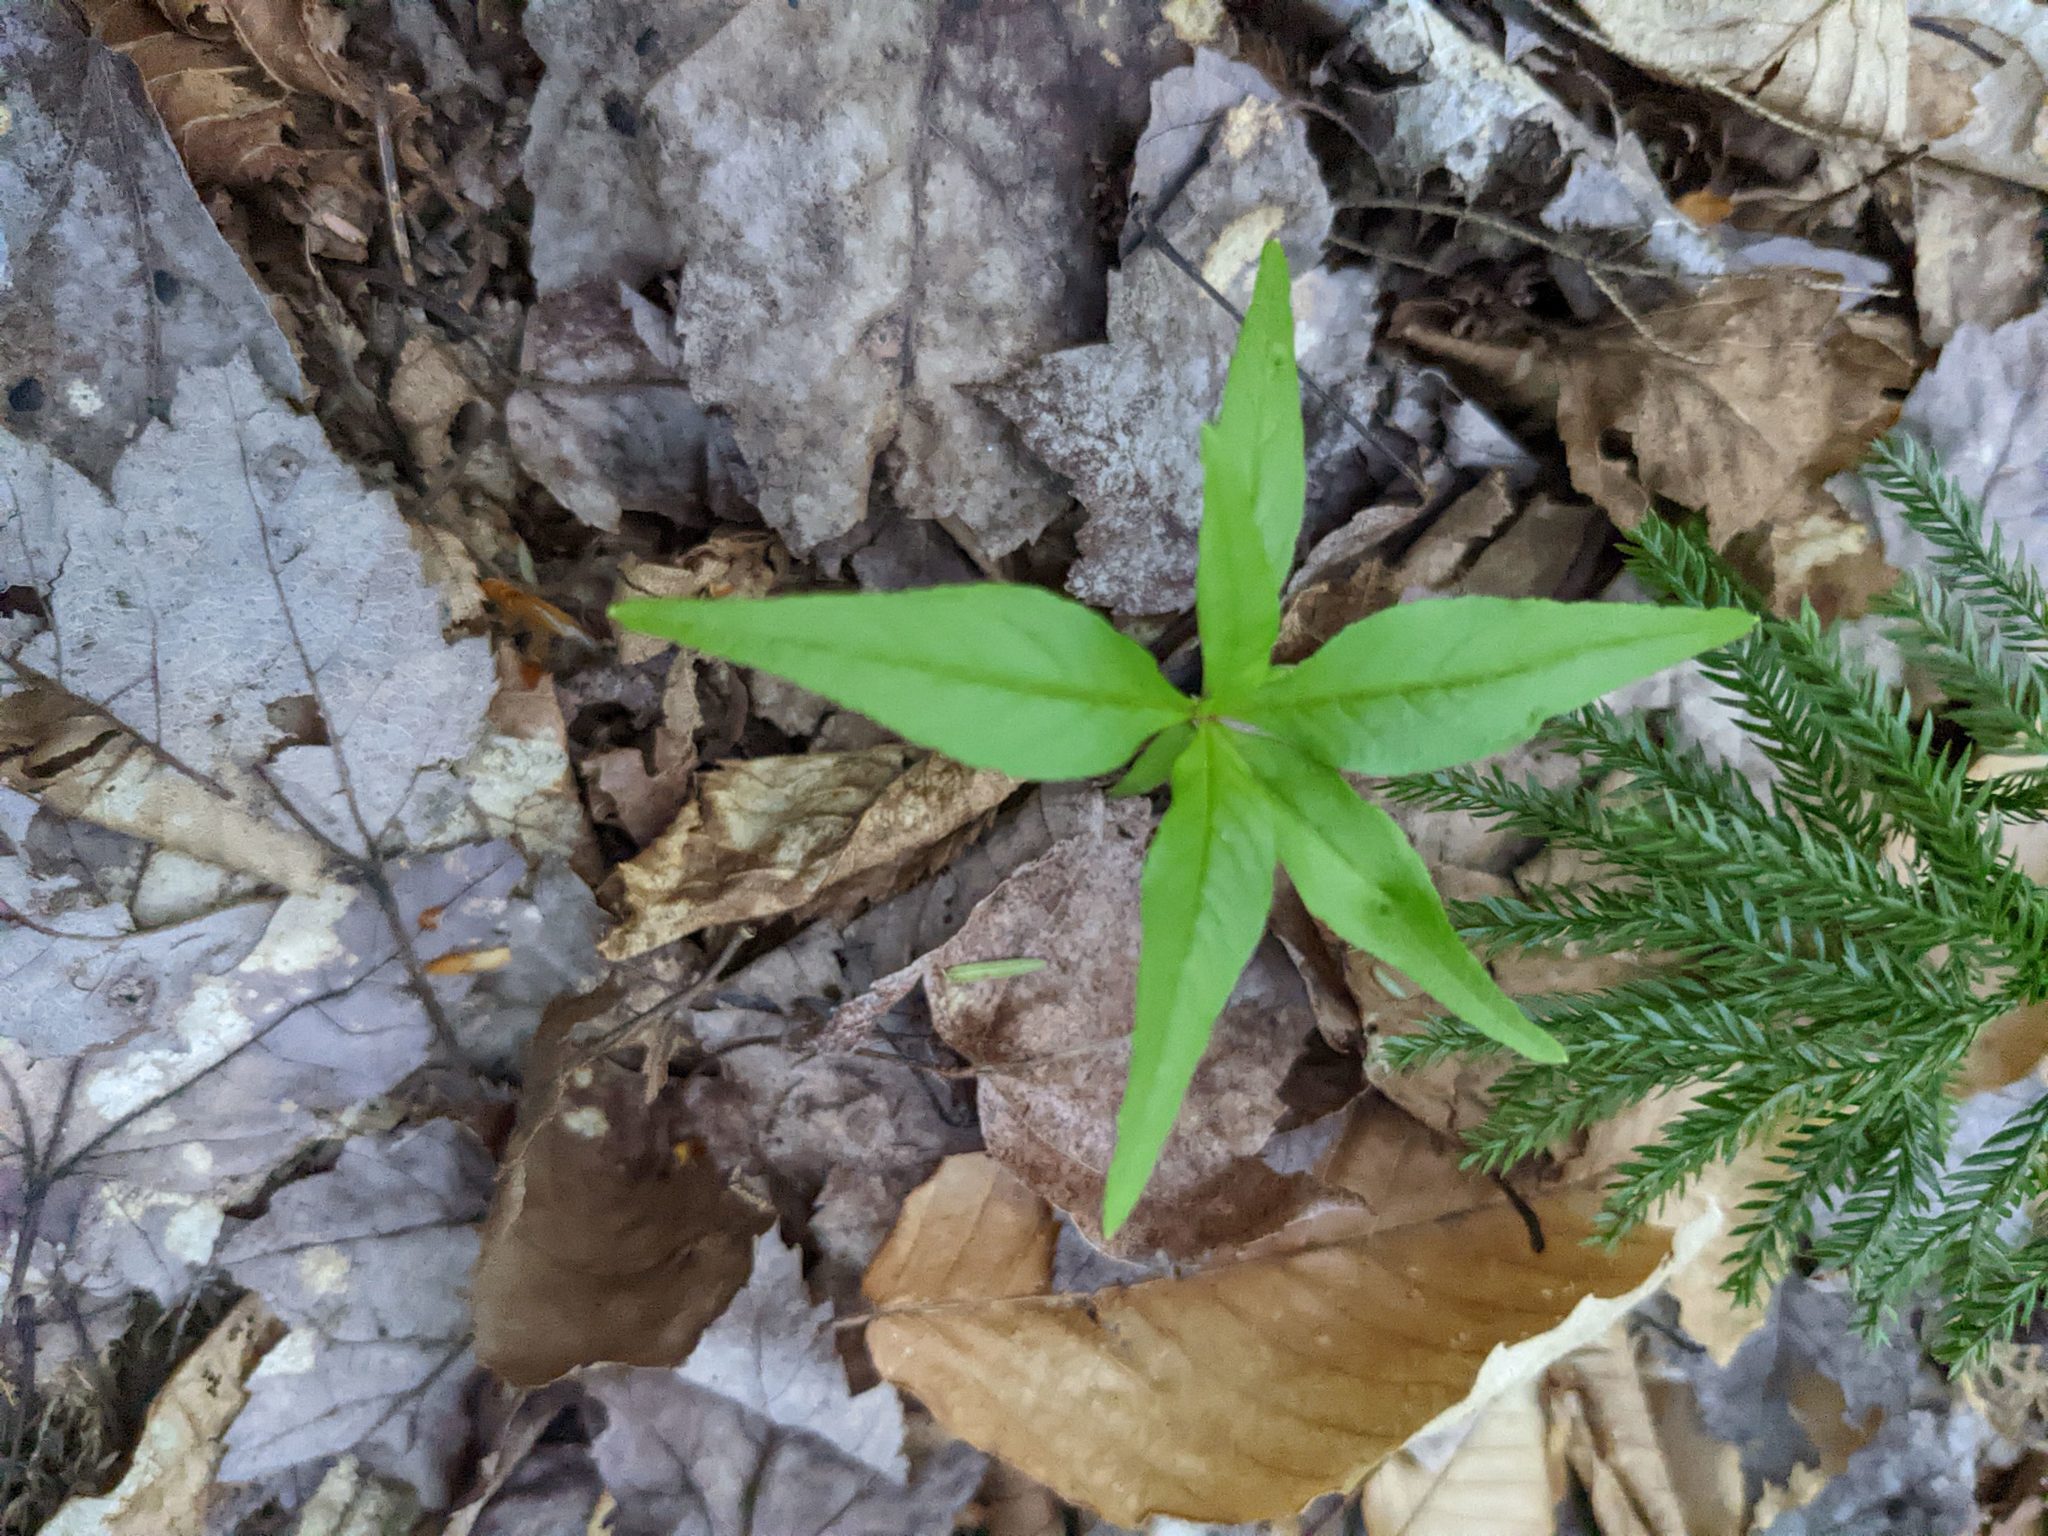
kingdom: Plantae
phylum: Tracheophyta
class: Magnoliopsida
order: Ericales
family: Primulaceae
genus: Lysimachia
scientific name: Lysimachia borealis
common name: American starflower
